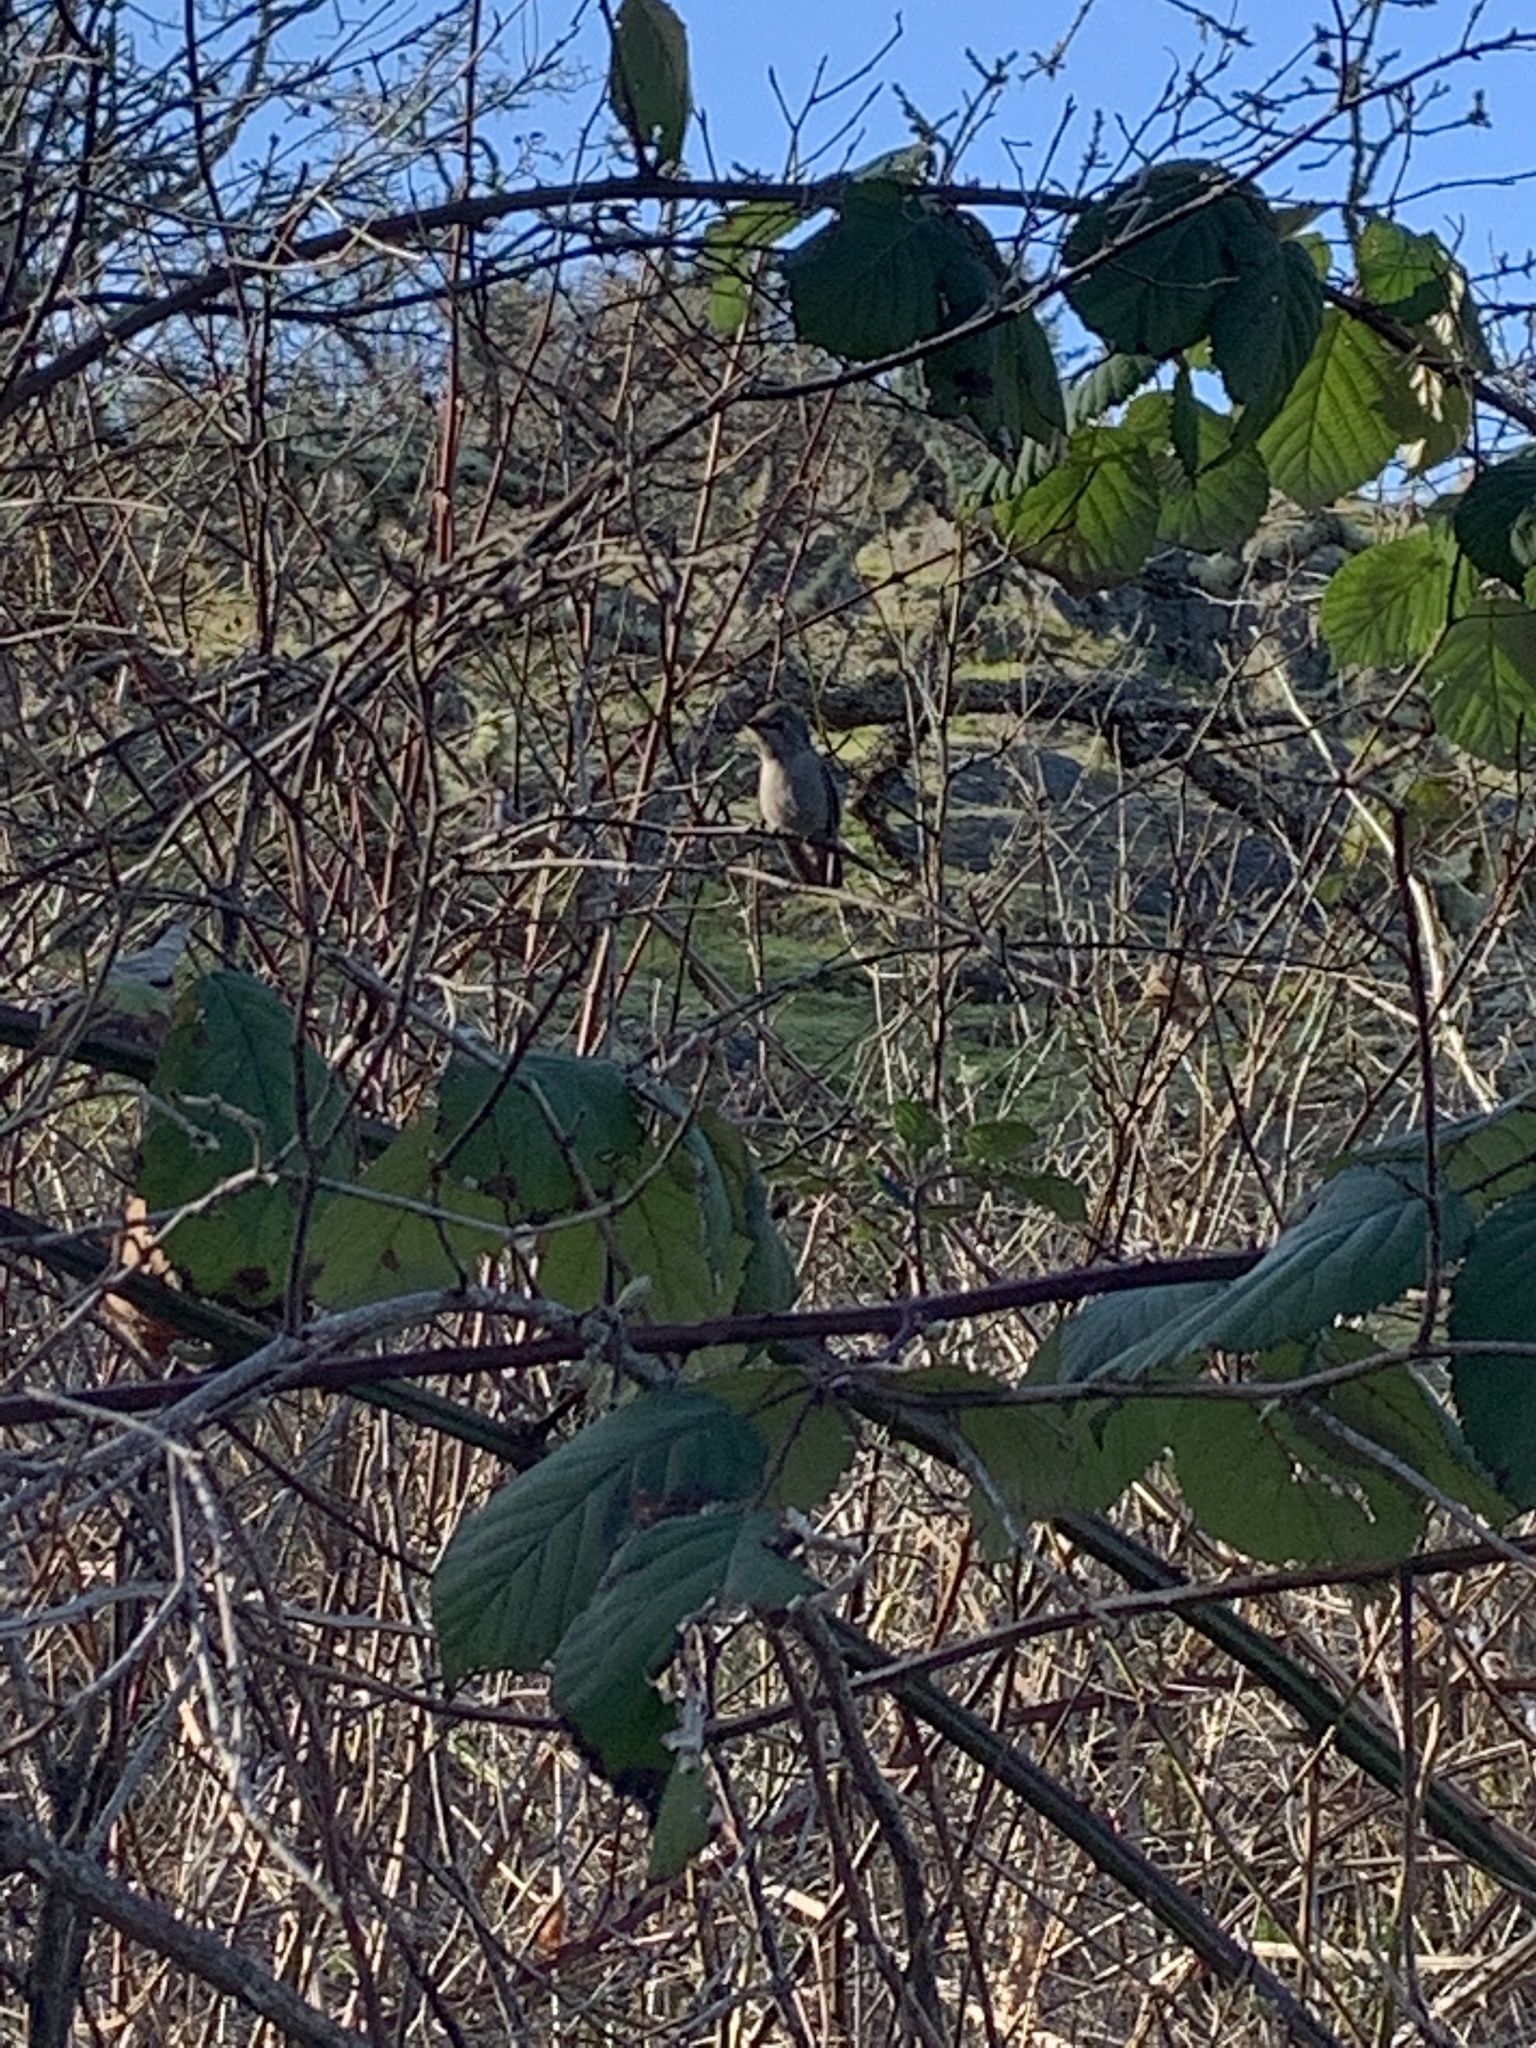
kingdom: Animalia
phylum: Chordata
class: Aves
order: Apodiformes
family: Trochilidae
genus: Calypte
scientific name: Calypte anna
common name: Anna's hummingbird
